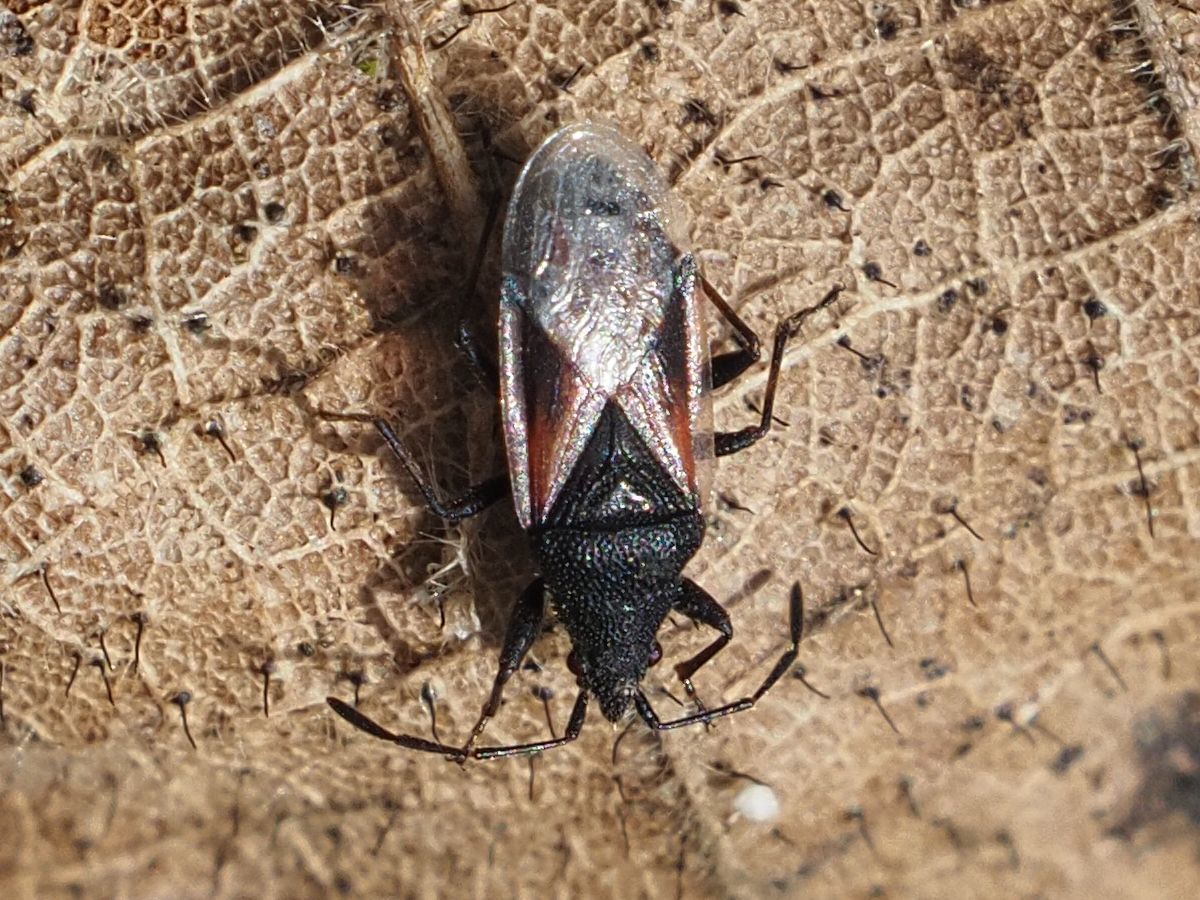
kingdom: Animalia
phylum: Arthropoda
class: Insecta
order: Hemiptera
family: Oxycarenidae
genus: Oxycarenus
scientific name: Oxycarenus lavaterae
